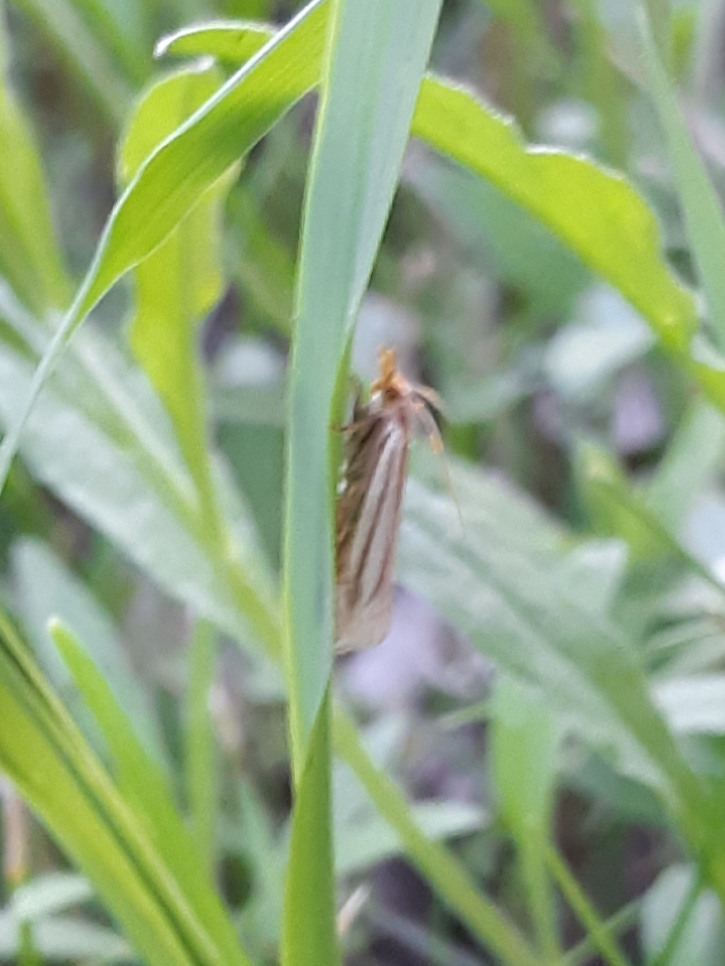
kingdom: Animalia
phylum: Arthropoda
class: Insecta
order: Lepidoptera
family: Crambidae
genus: Crambus
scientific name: Crambus
